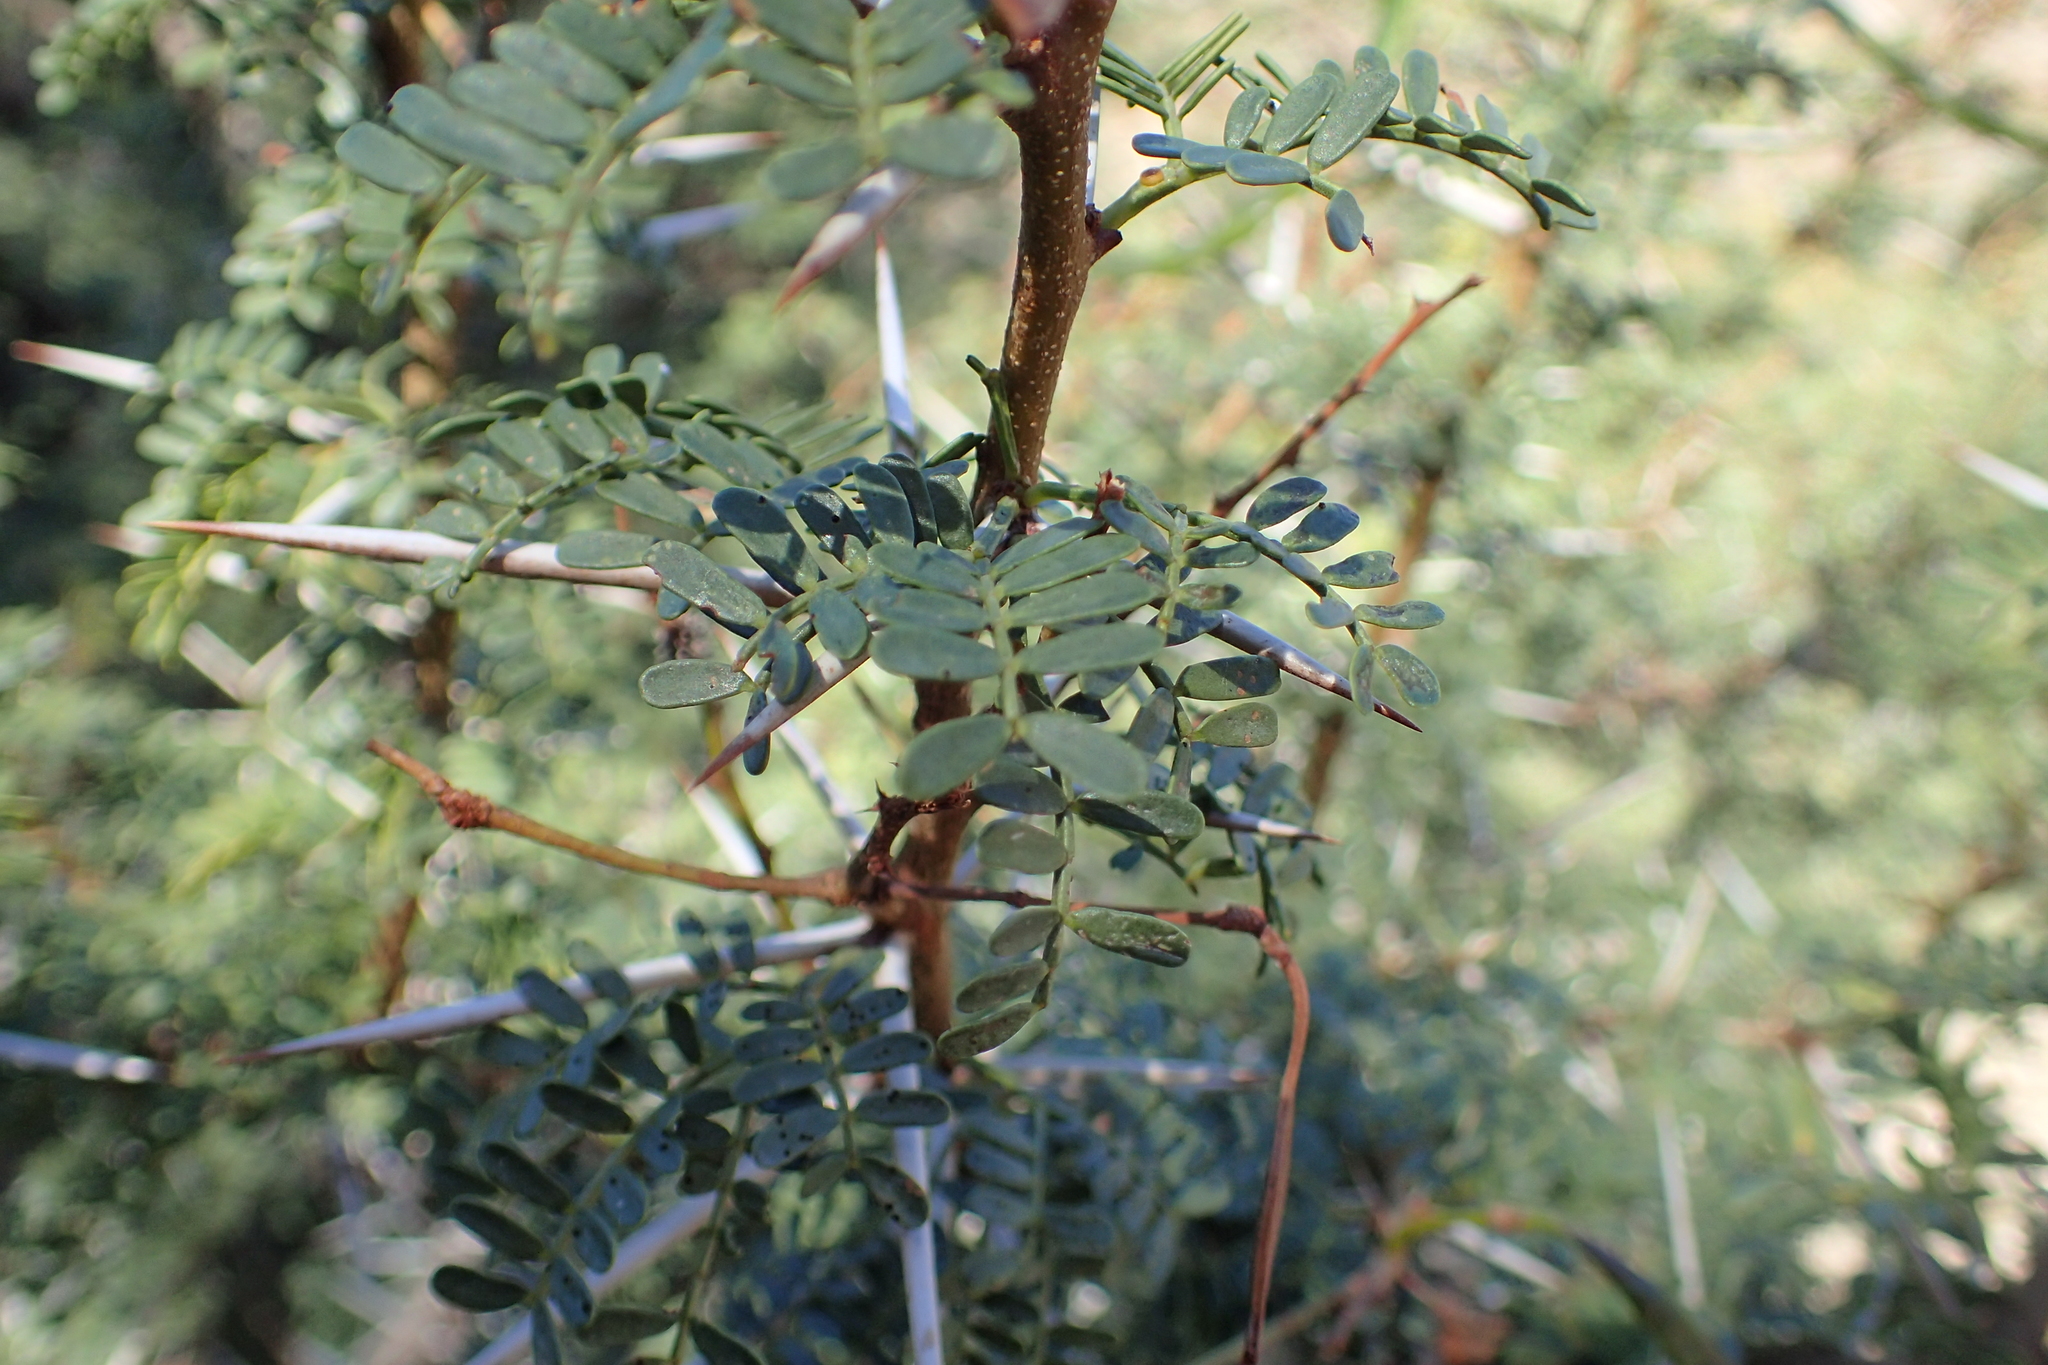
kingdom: Plantae
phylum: Tracheophyta
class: Magnoliopsida
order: Fabales
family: Fabaceae
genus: Vachellia
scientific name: Vachellia karroo
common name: Sweet thorn
